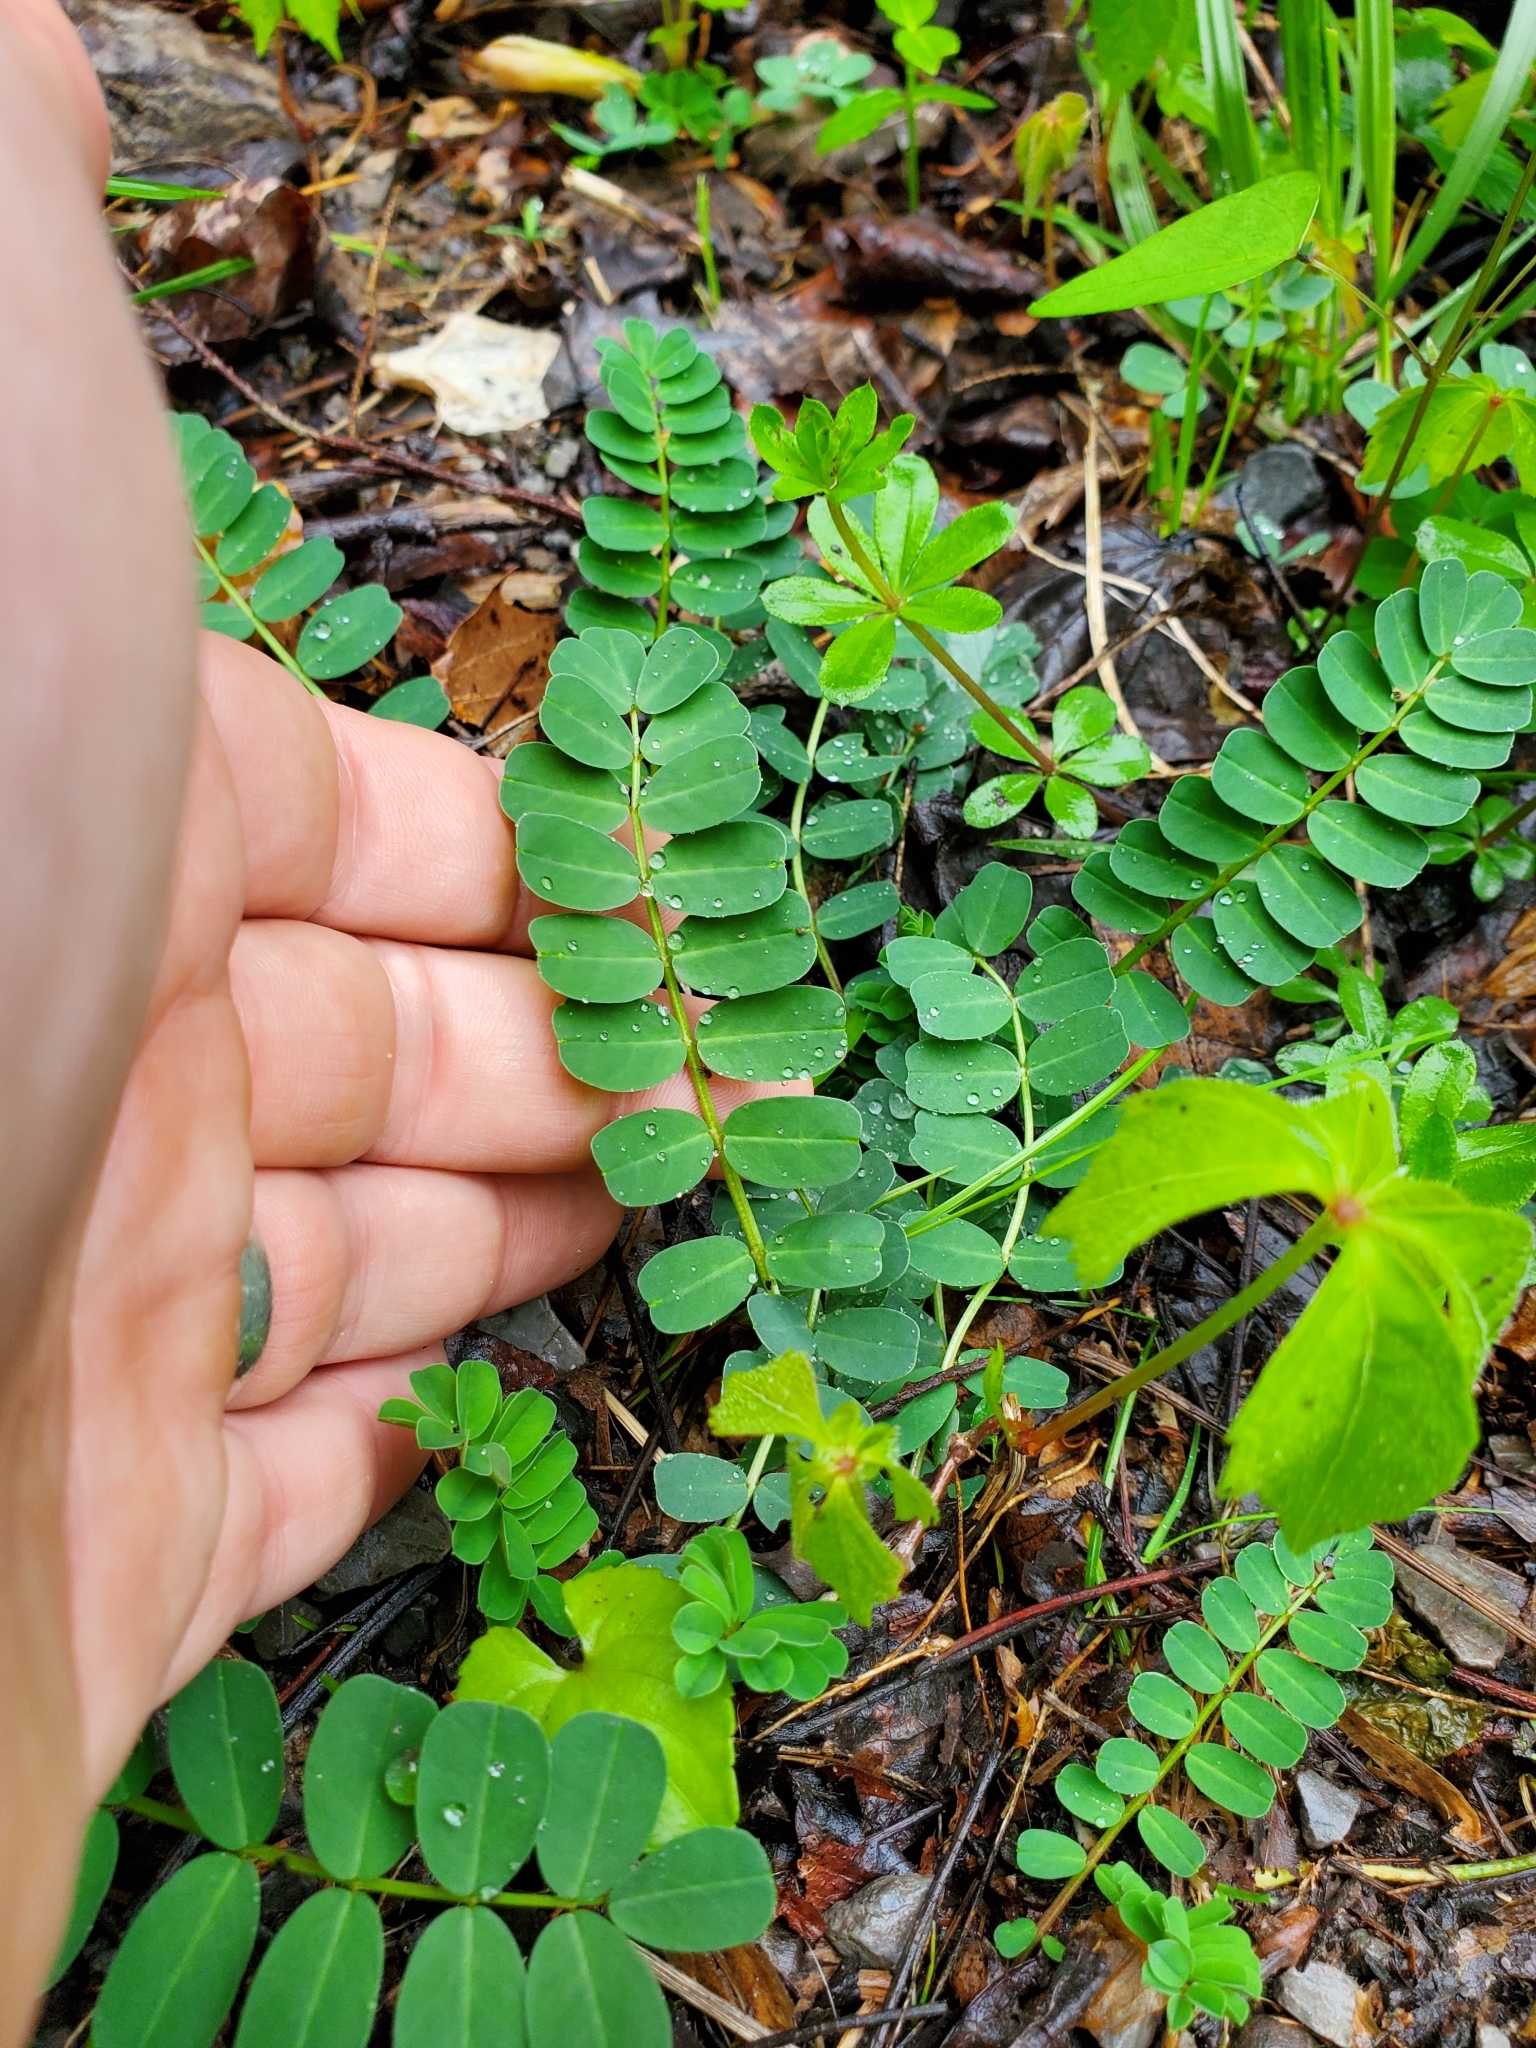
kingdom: Plantae
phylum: Tracheophyta
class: Magnoliopsida
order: Fabales
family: Fabaceae
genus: Coronilla
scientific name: Coronilla varia
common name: Crownvetch
